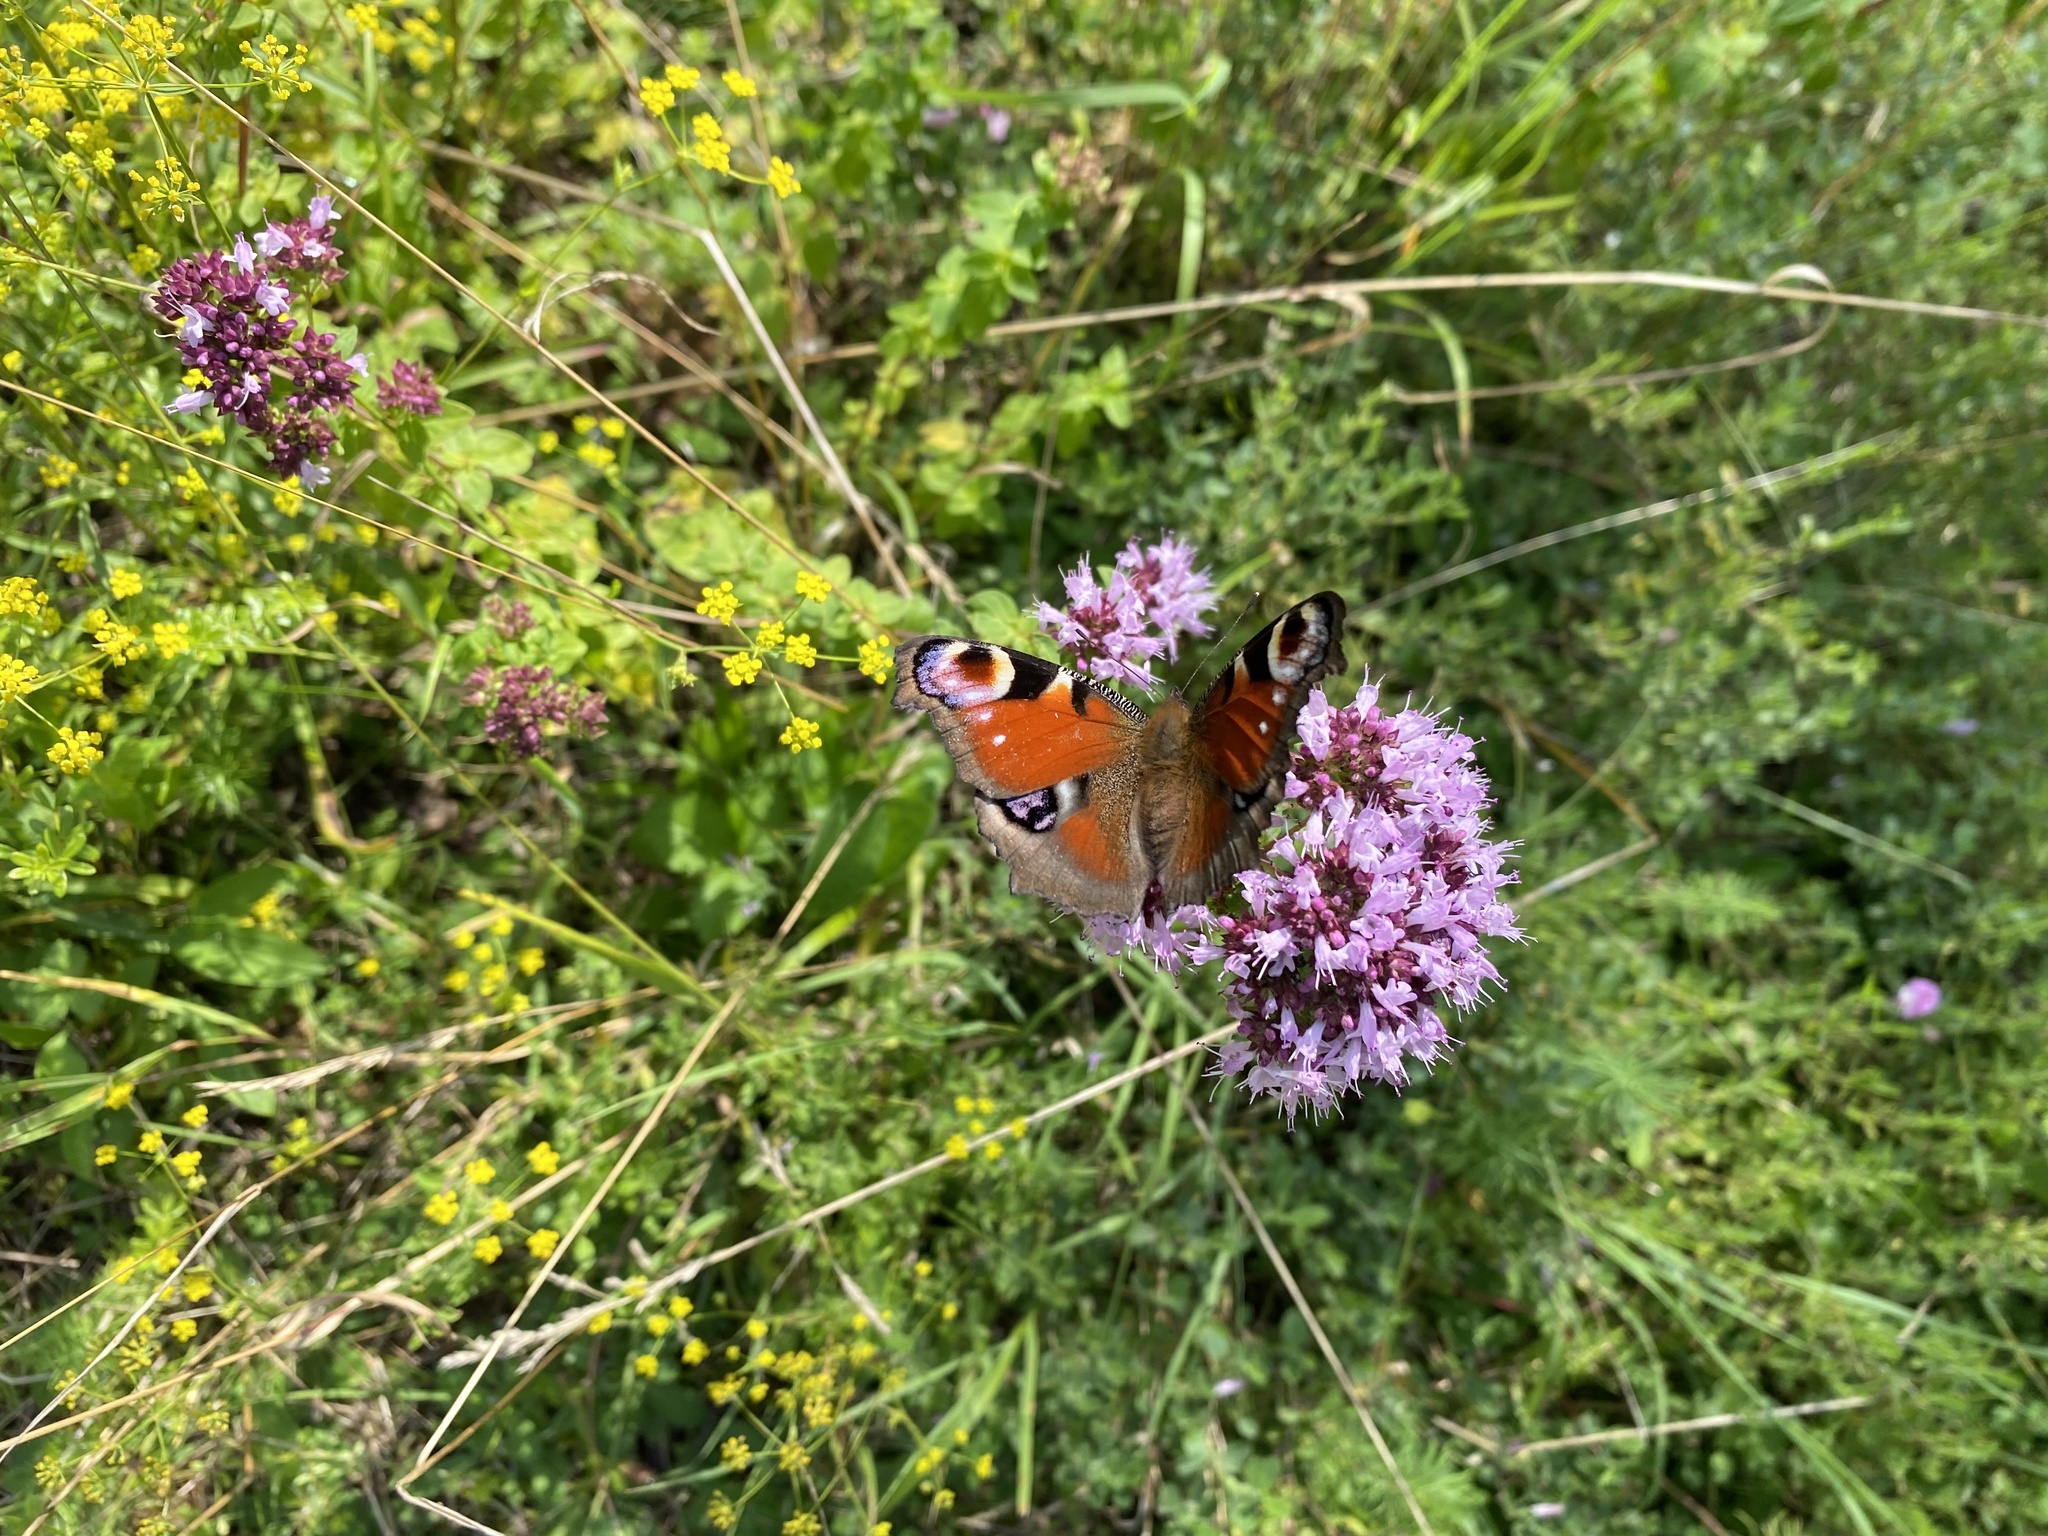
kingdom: Animalia
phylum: Arthropoda
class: Insecta
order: Lepidoptera
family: Nymphalidae
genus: Aglais
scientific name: Aglais io
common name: Peacock
